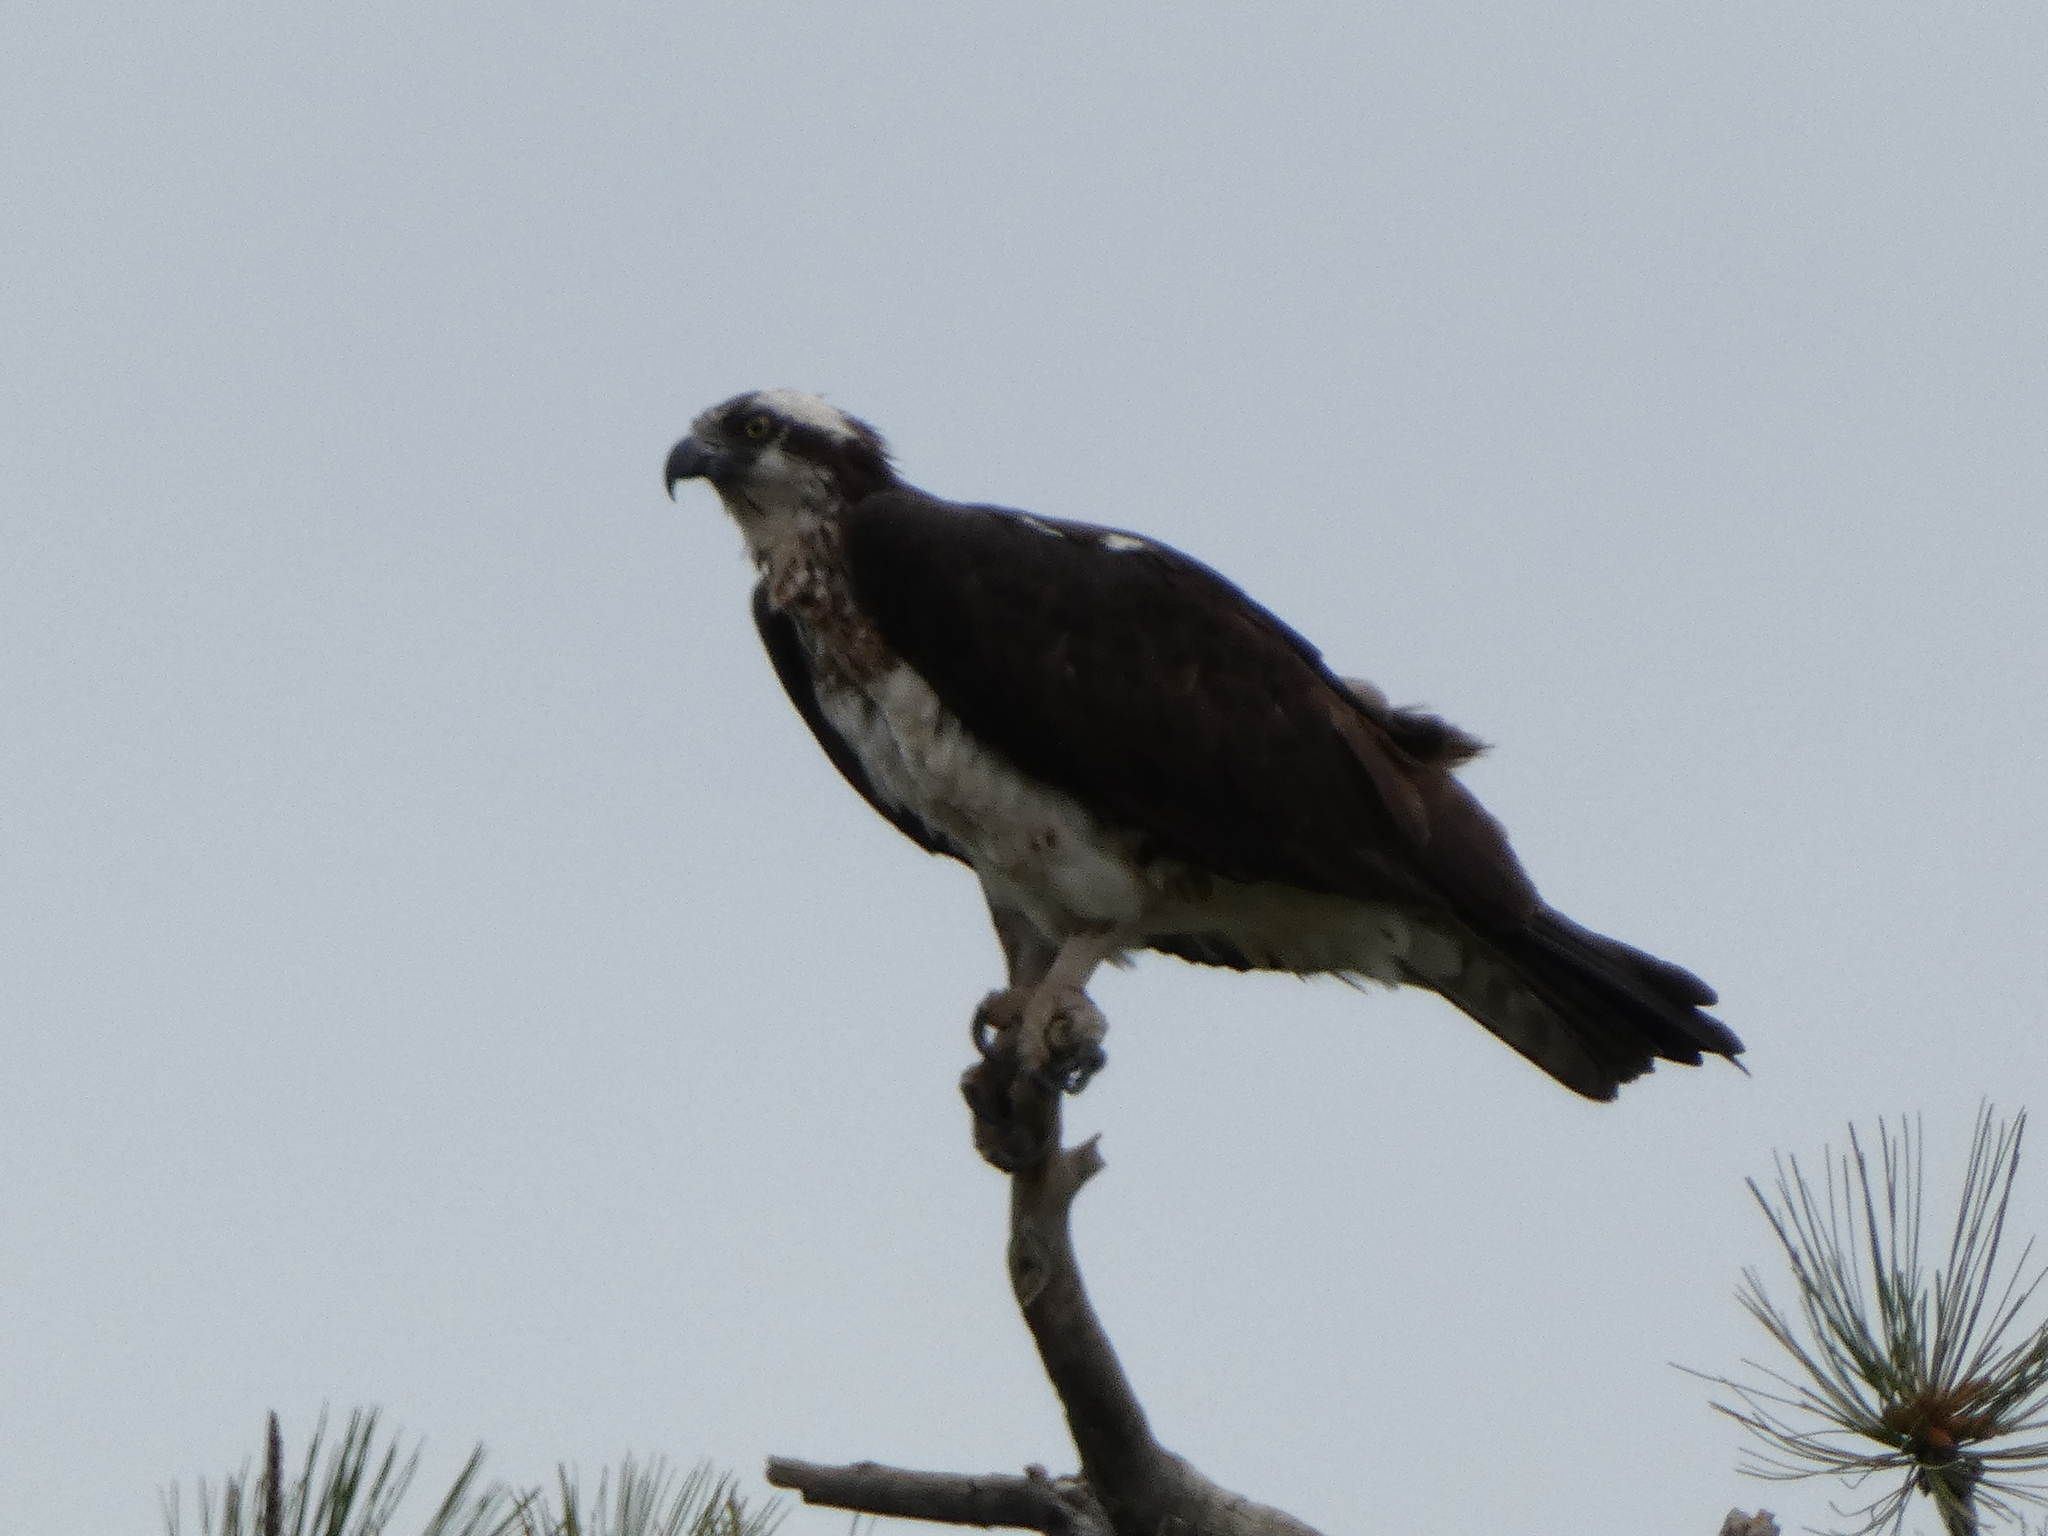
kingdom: Animalia
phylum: Chordata
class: Aves
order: Accipitriformes
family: Pandionidae
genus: Pandion
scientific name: Pandion haliaetus
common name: Osprey
